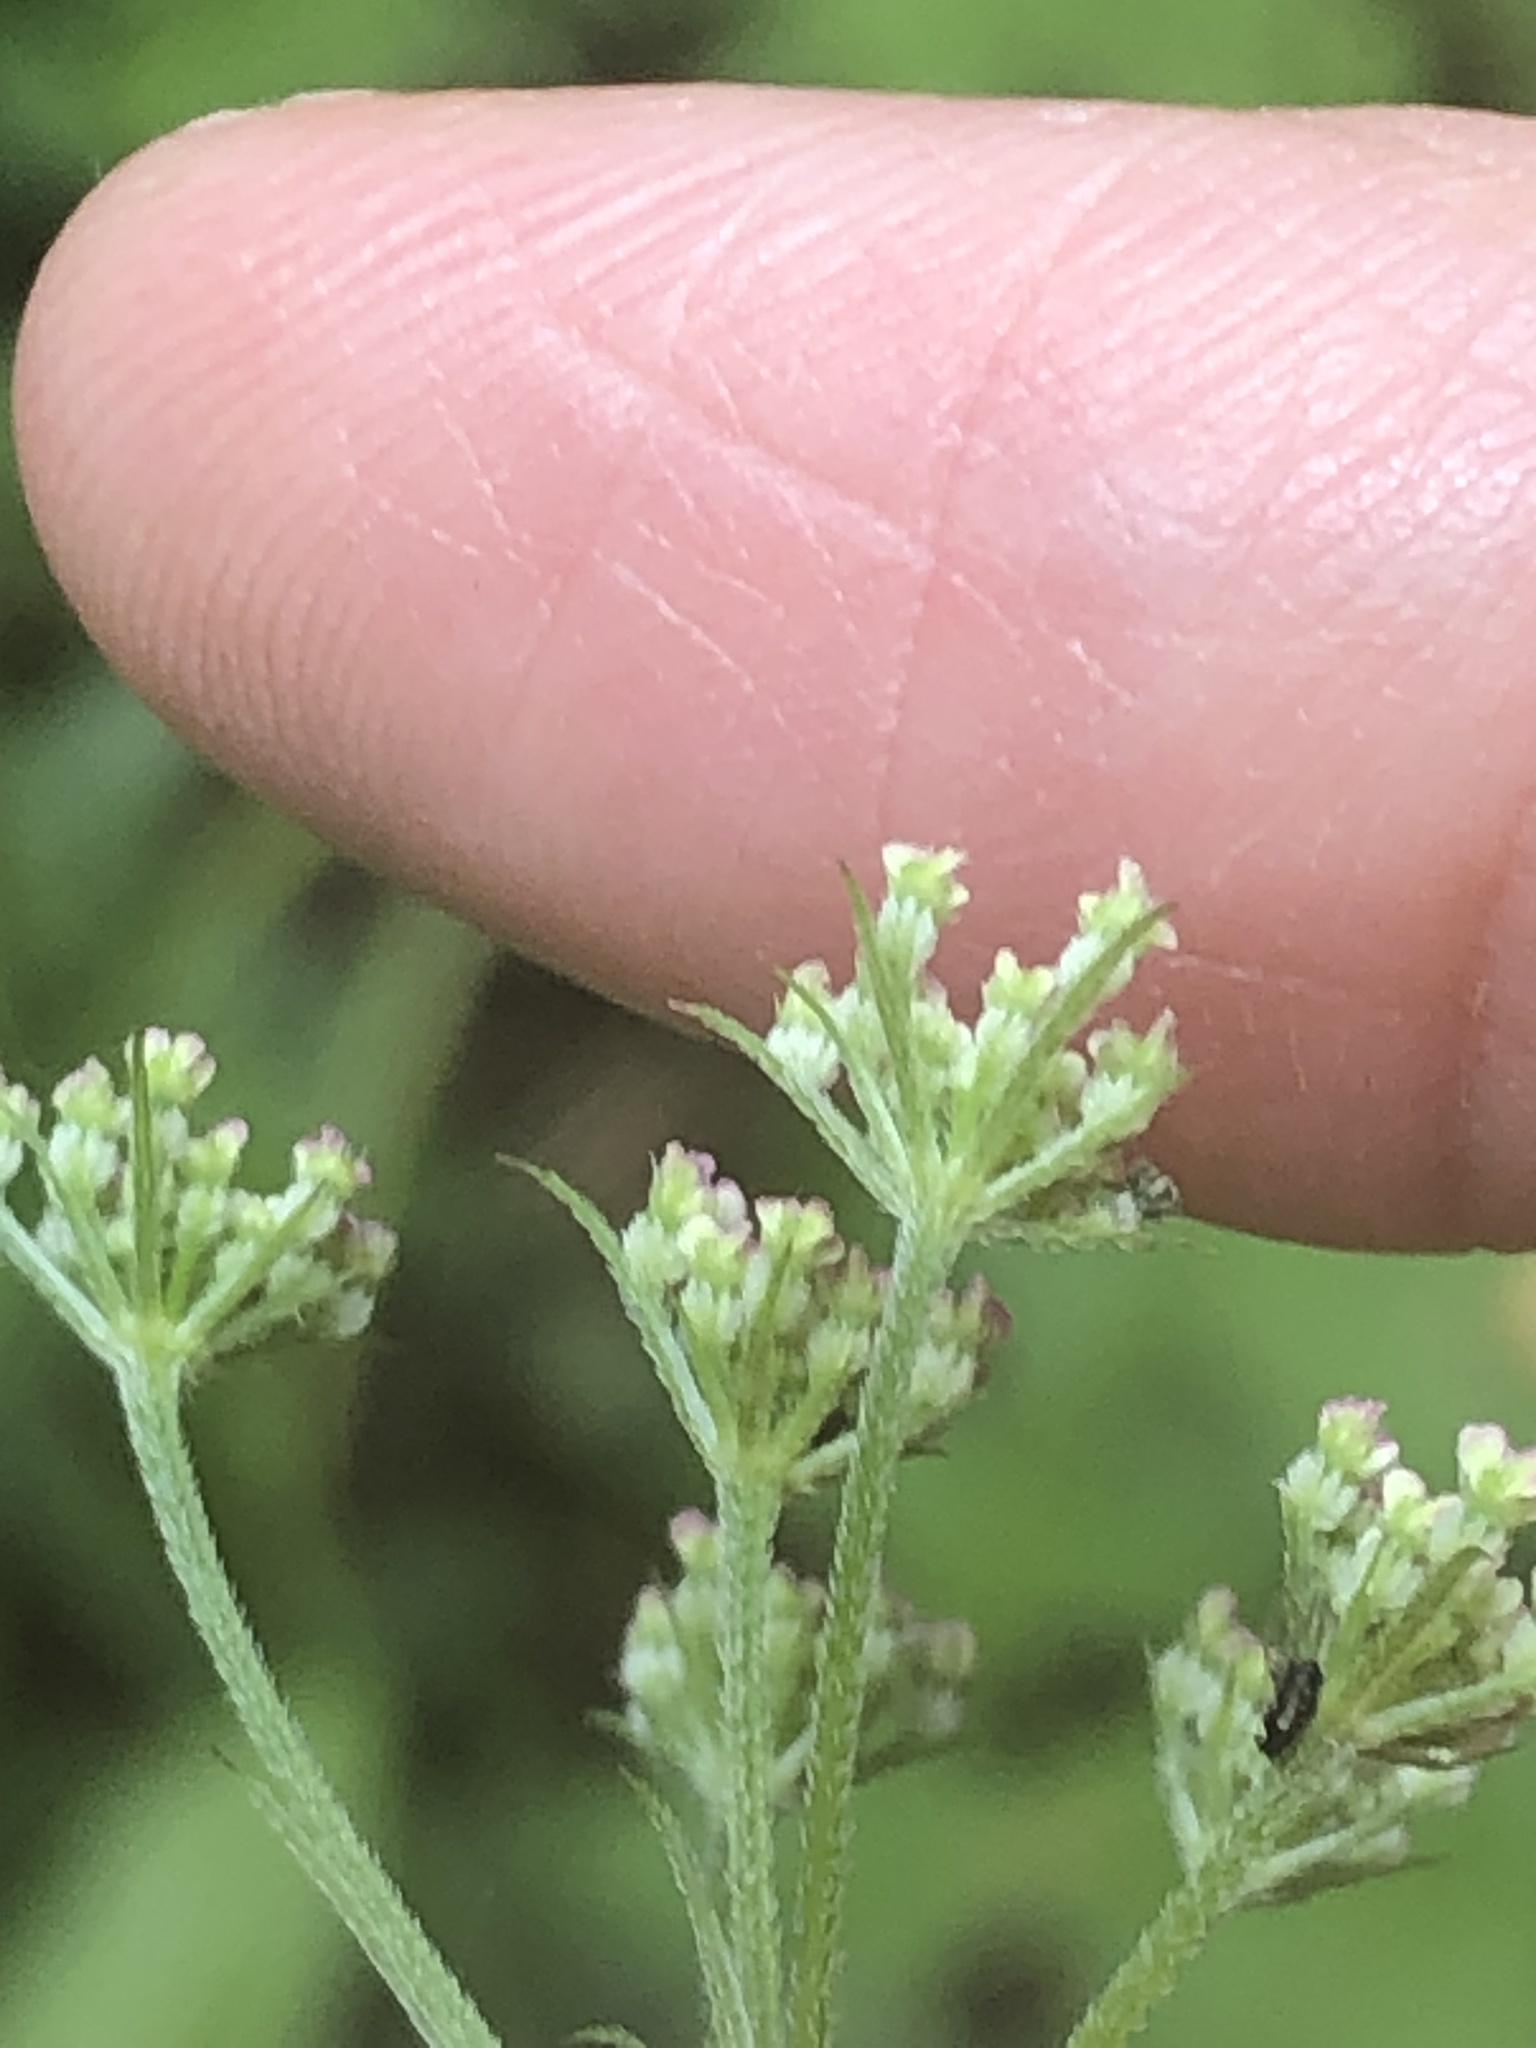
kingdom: Plantae
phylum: Tracheophyta
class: Magnoliopsida
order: Apiales
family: Apiaceae
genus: Torilis
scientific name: Torilis japonica
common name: Upright hedge-parsley
